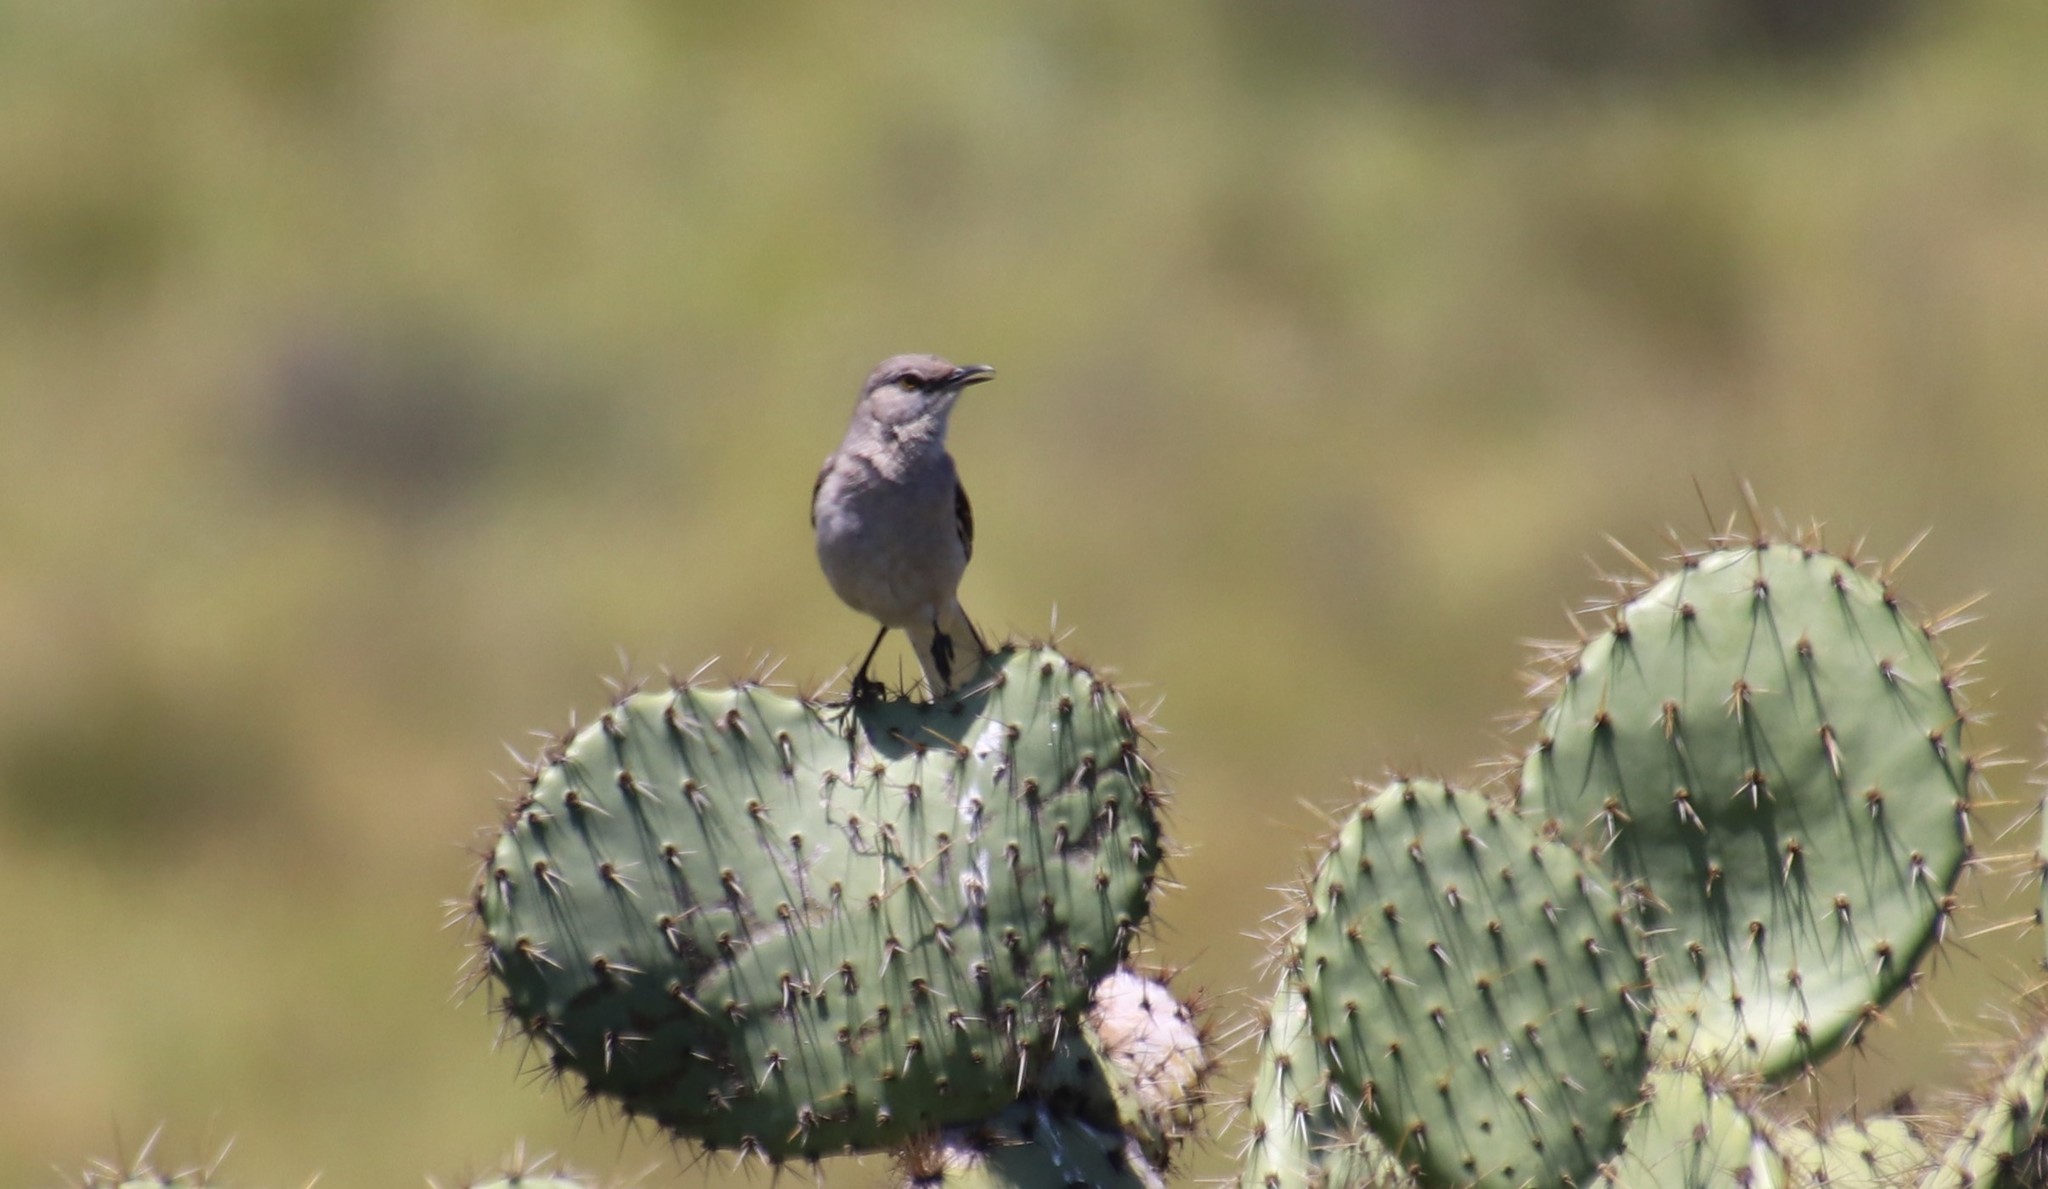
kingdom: Animalia
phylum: Chordata
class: Aves
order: Passeriformes
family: Mimidae
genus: Mimus
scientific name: Mimus polyglottos
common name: Northern mockingbird
